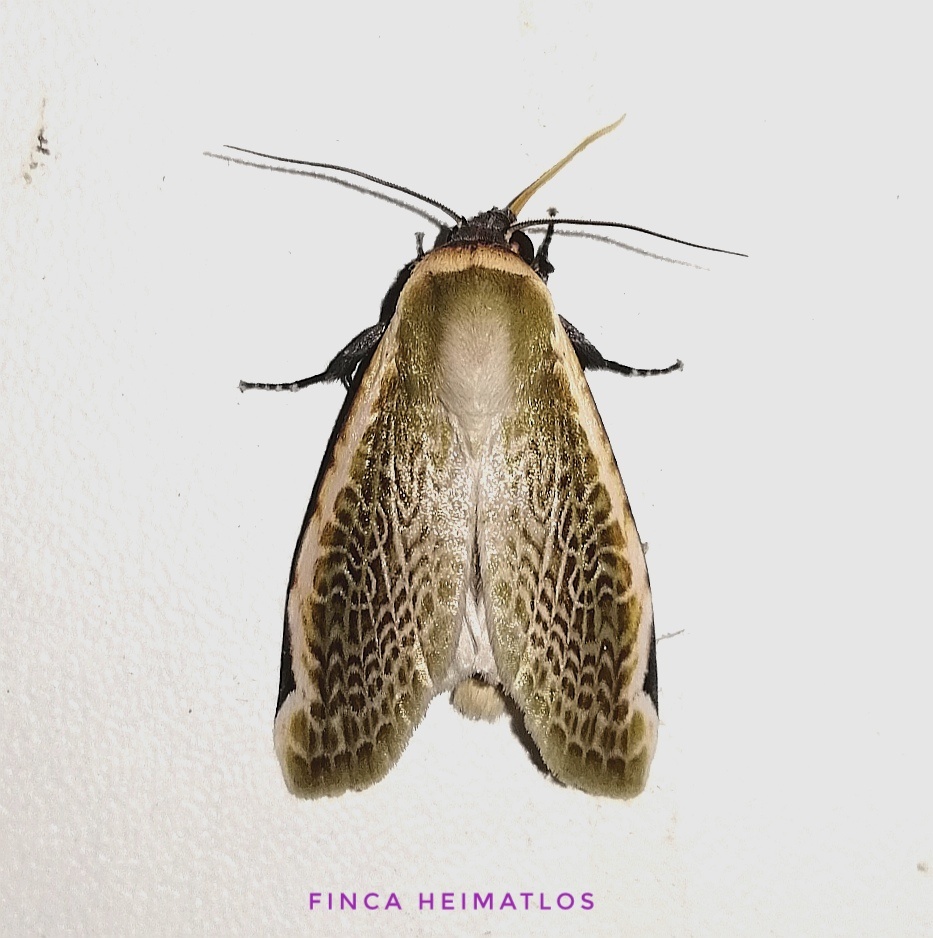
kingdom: Animalia
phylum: Arthropoda
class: Insecta
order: Lepidoptera
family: Noctuidae
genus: Oxythres
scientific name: Oxythres splendens
